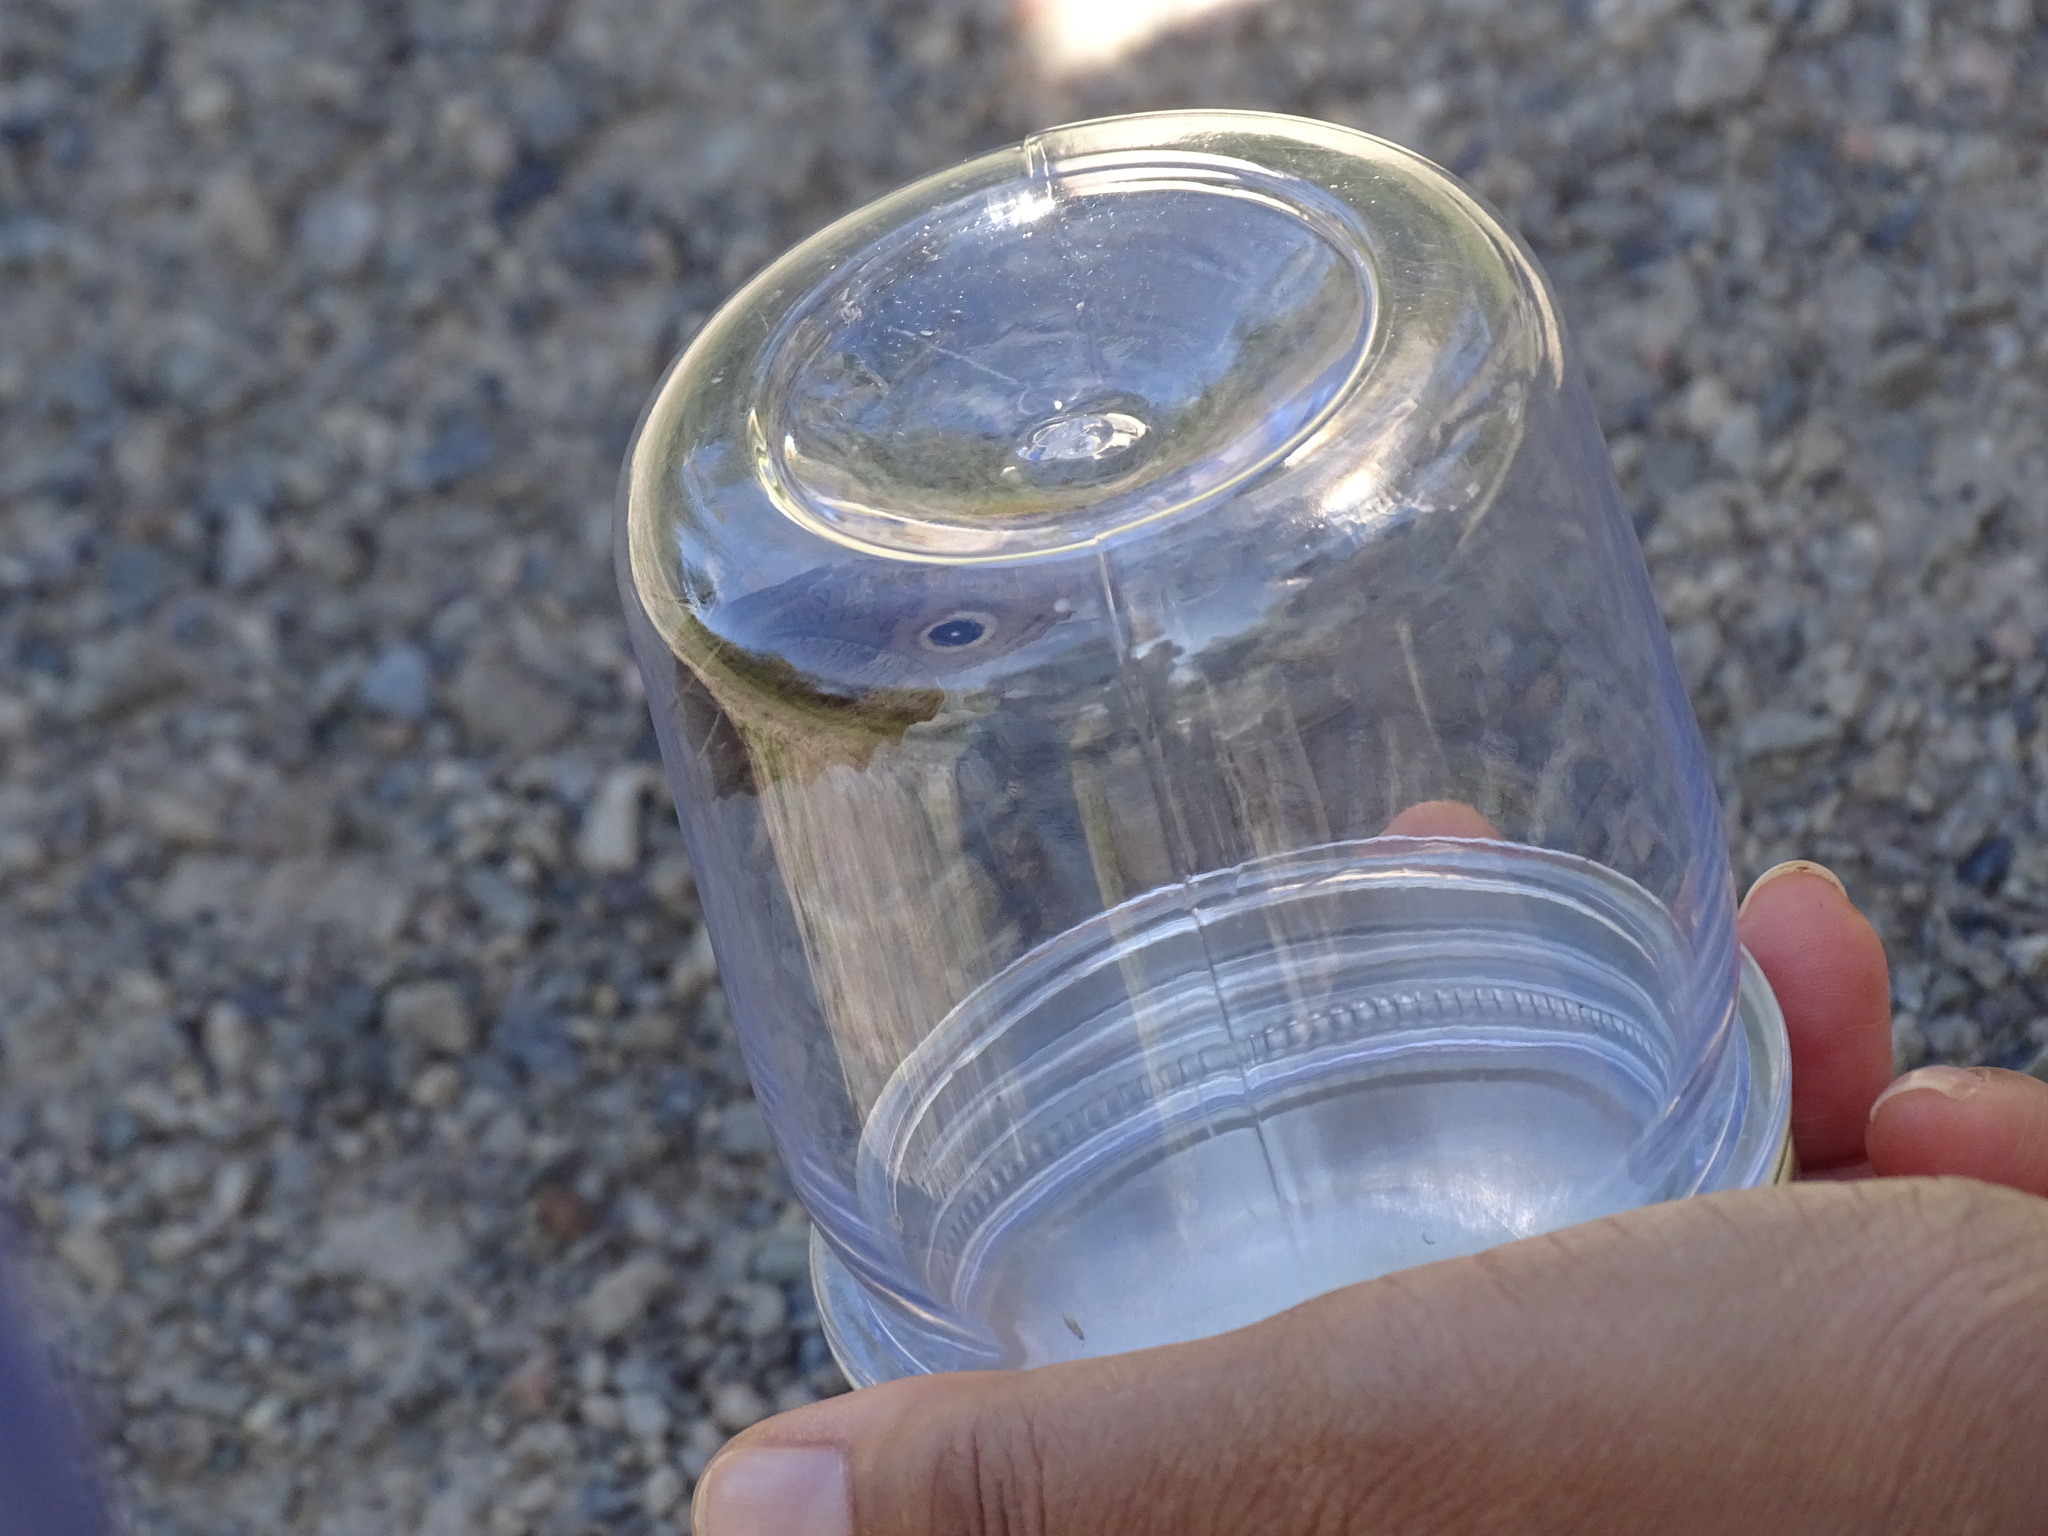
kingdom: Animalia
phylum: Arthropoda
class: Insecta
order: Lepidoptera
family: Nymphalidae
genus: Cercyonis
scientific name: Cercyonis pegala
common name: Common wood-nymph
